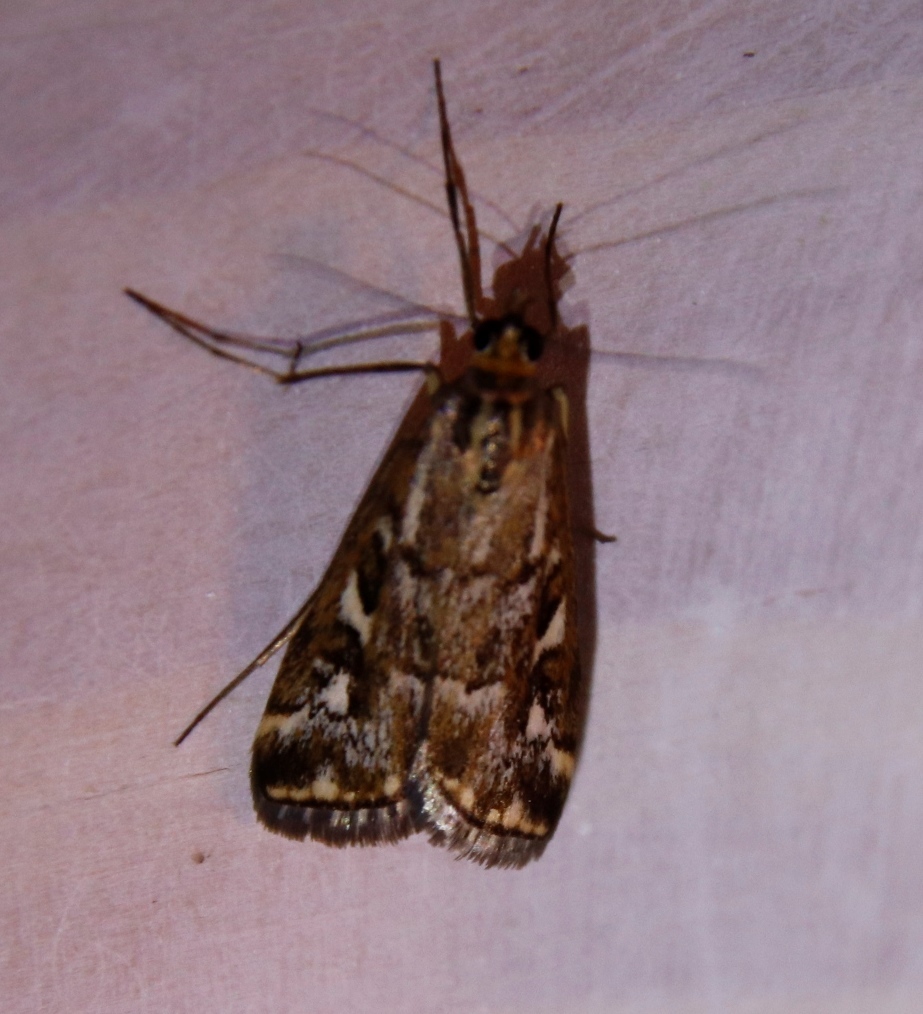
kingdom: Animalia
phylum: Arthropoda
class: Insecta
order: Lepidoptera
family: Crambidae
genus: Loxostege
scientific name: Loxostege frustalis
